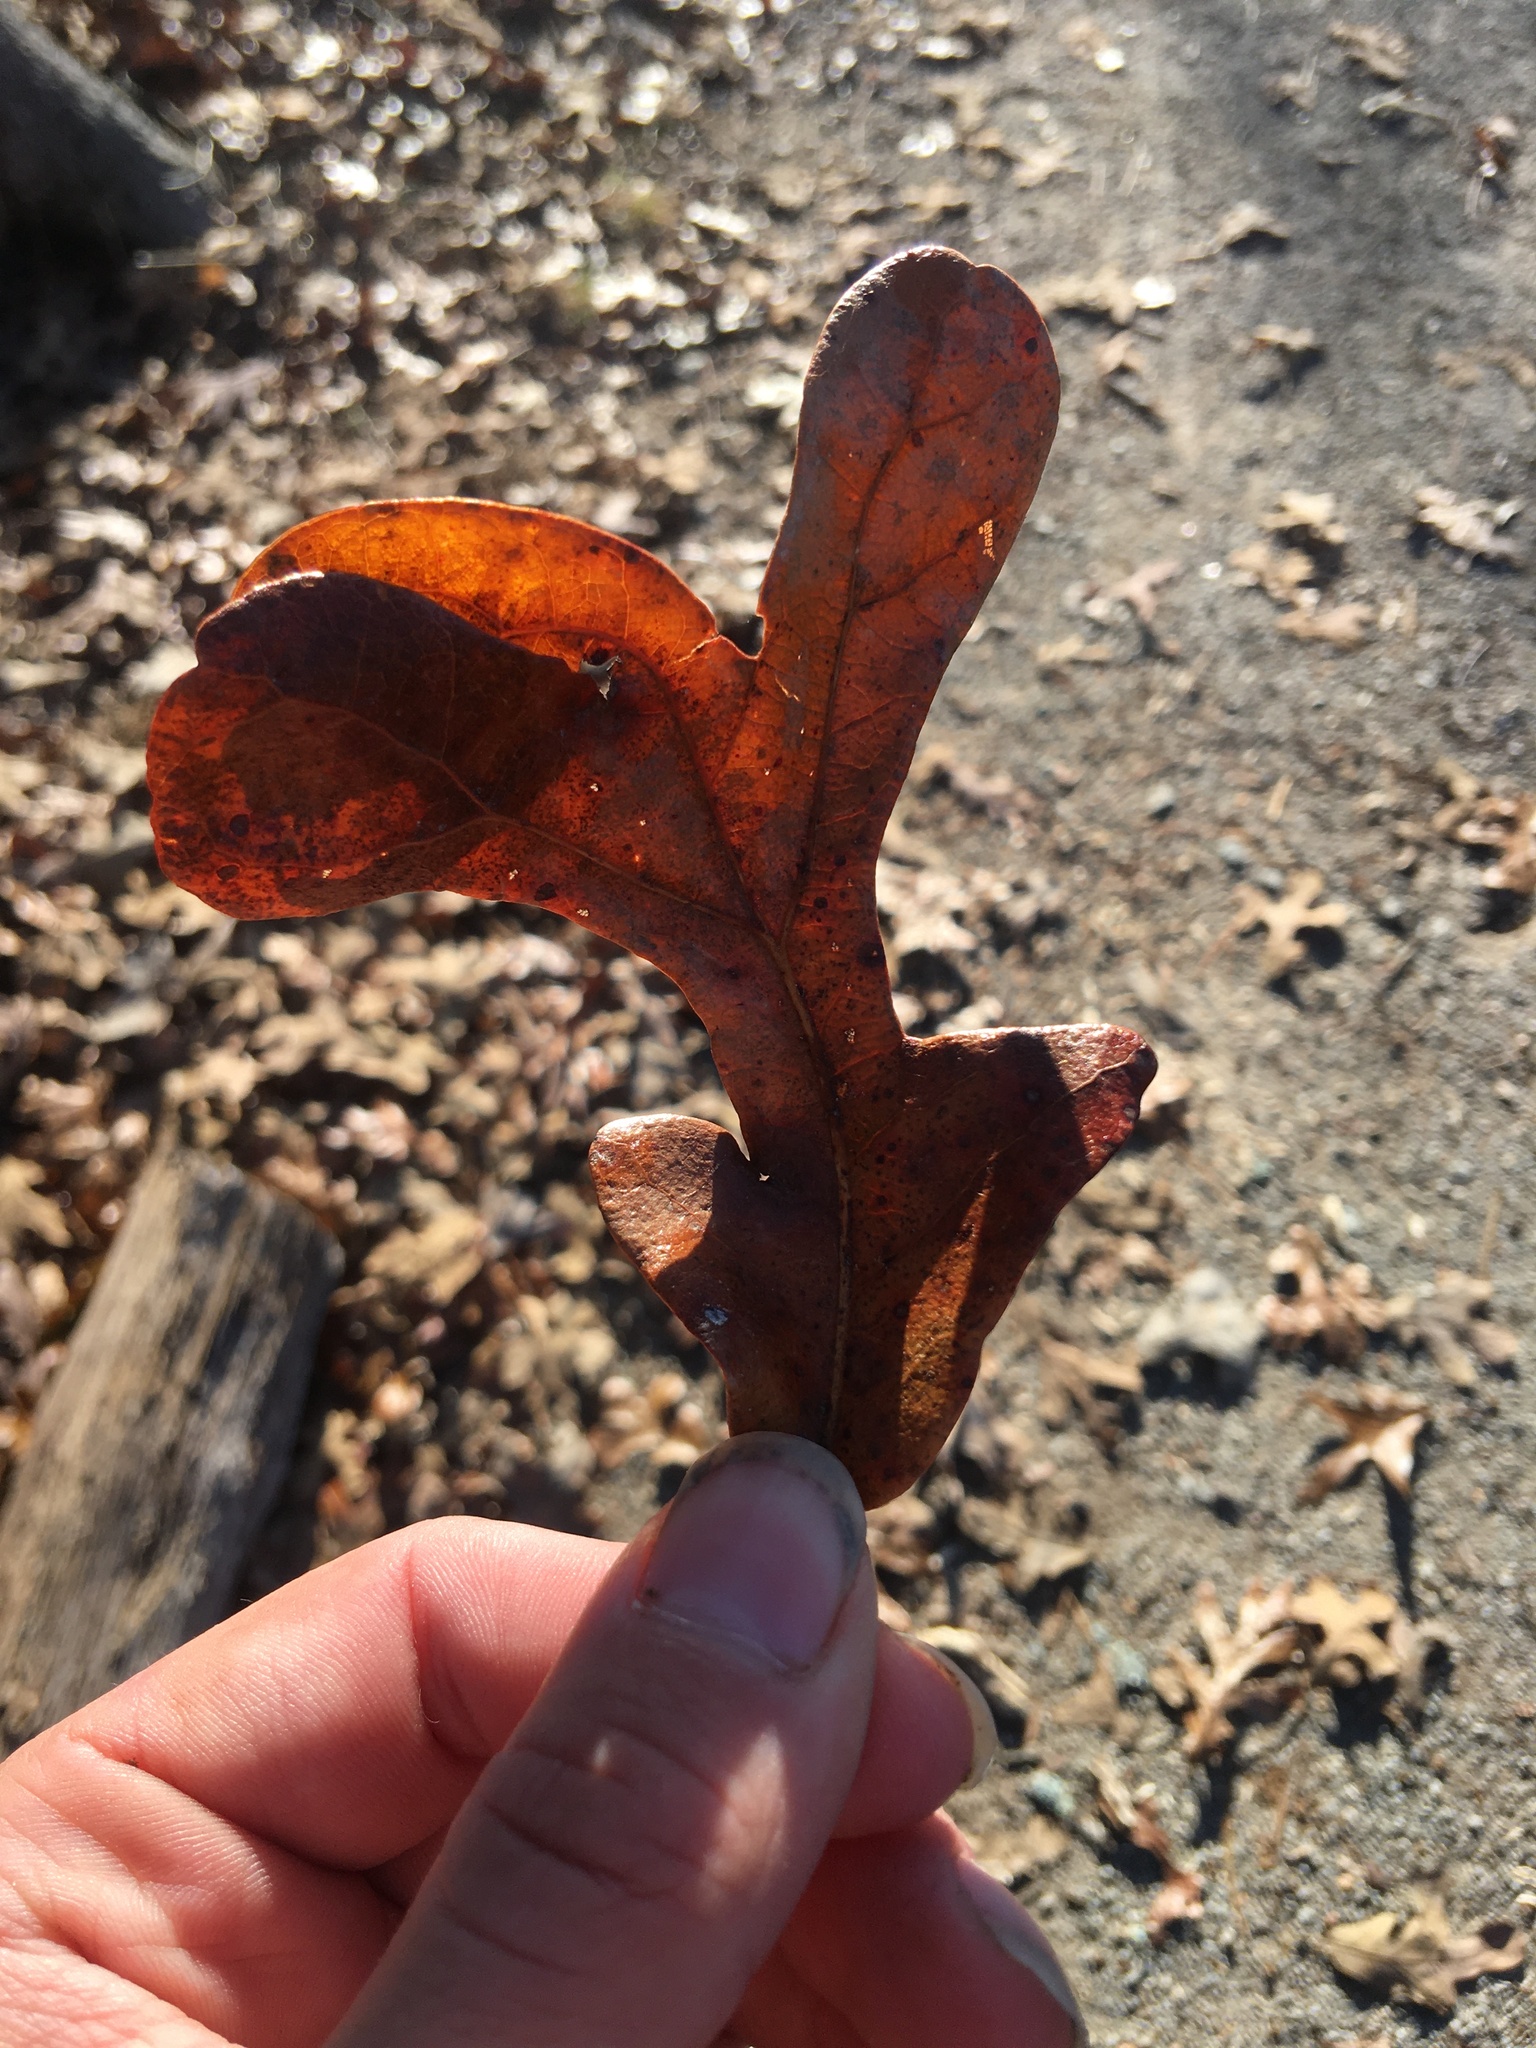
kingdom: Plantae
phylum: Tracheophyta
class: Magnoliopsida
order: Fagales
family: Fagaceae
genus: Quercus
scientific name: Quercus stellata
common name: Post oak
